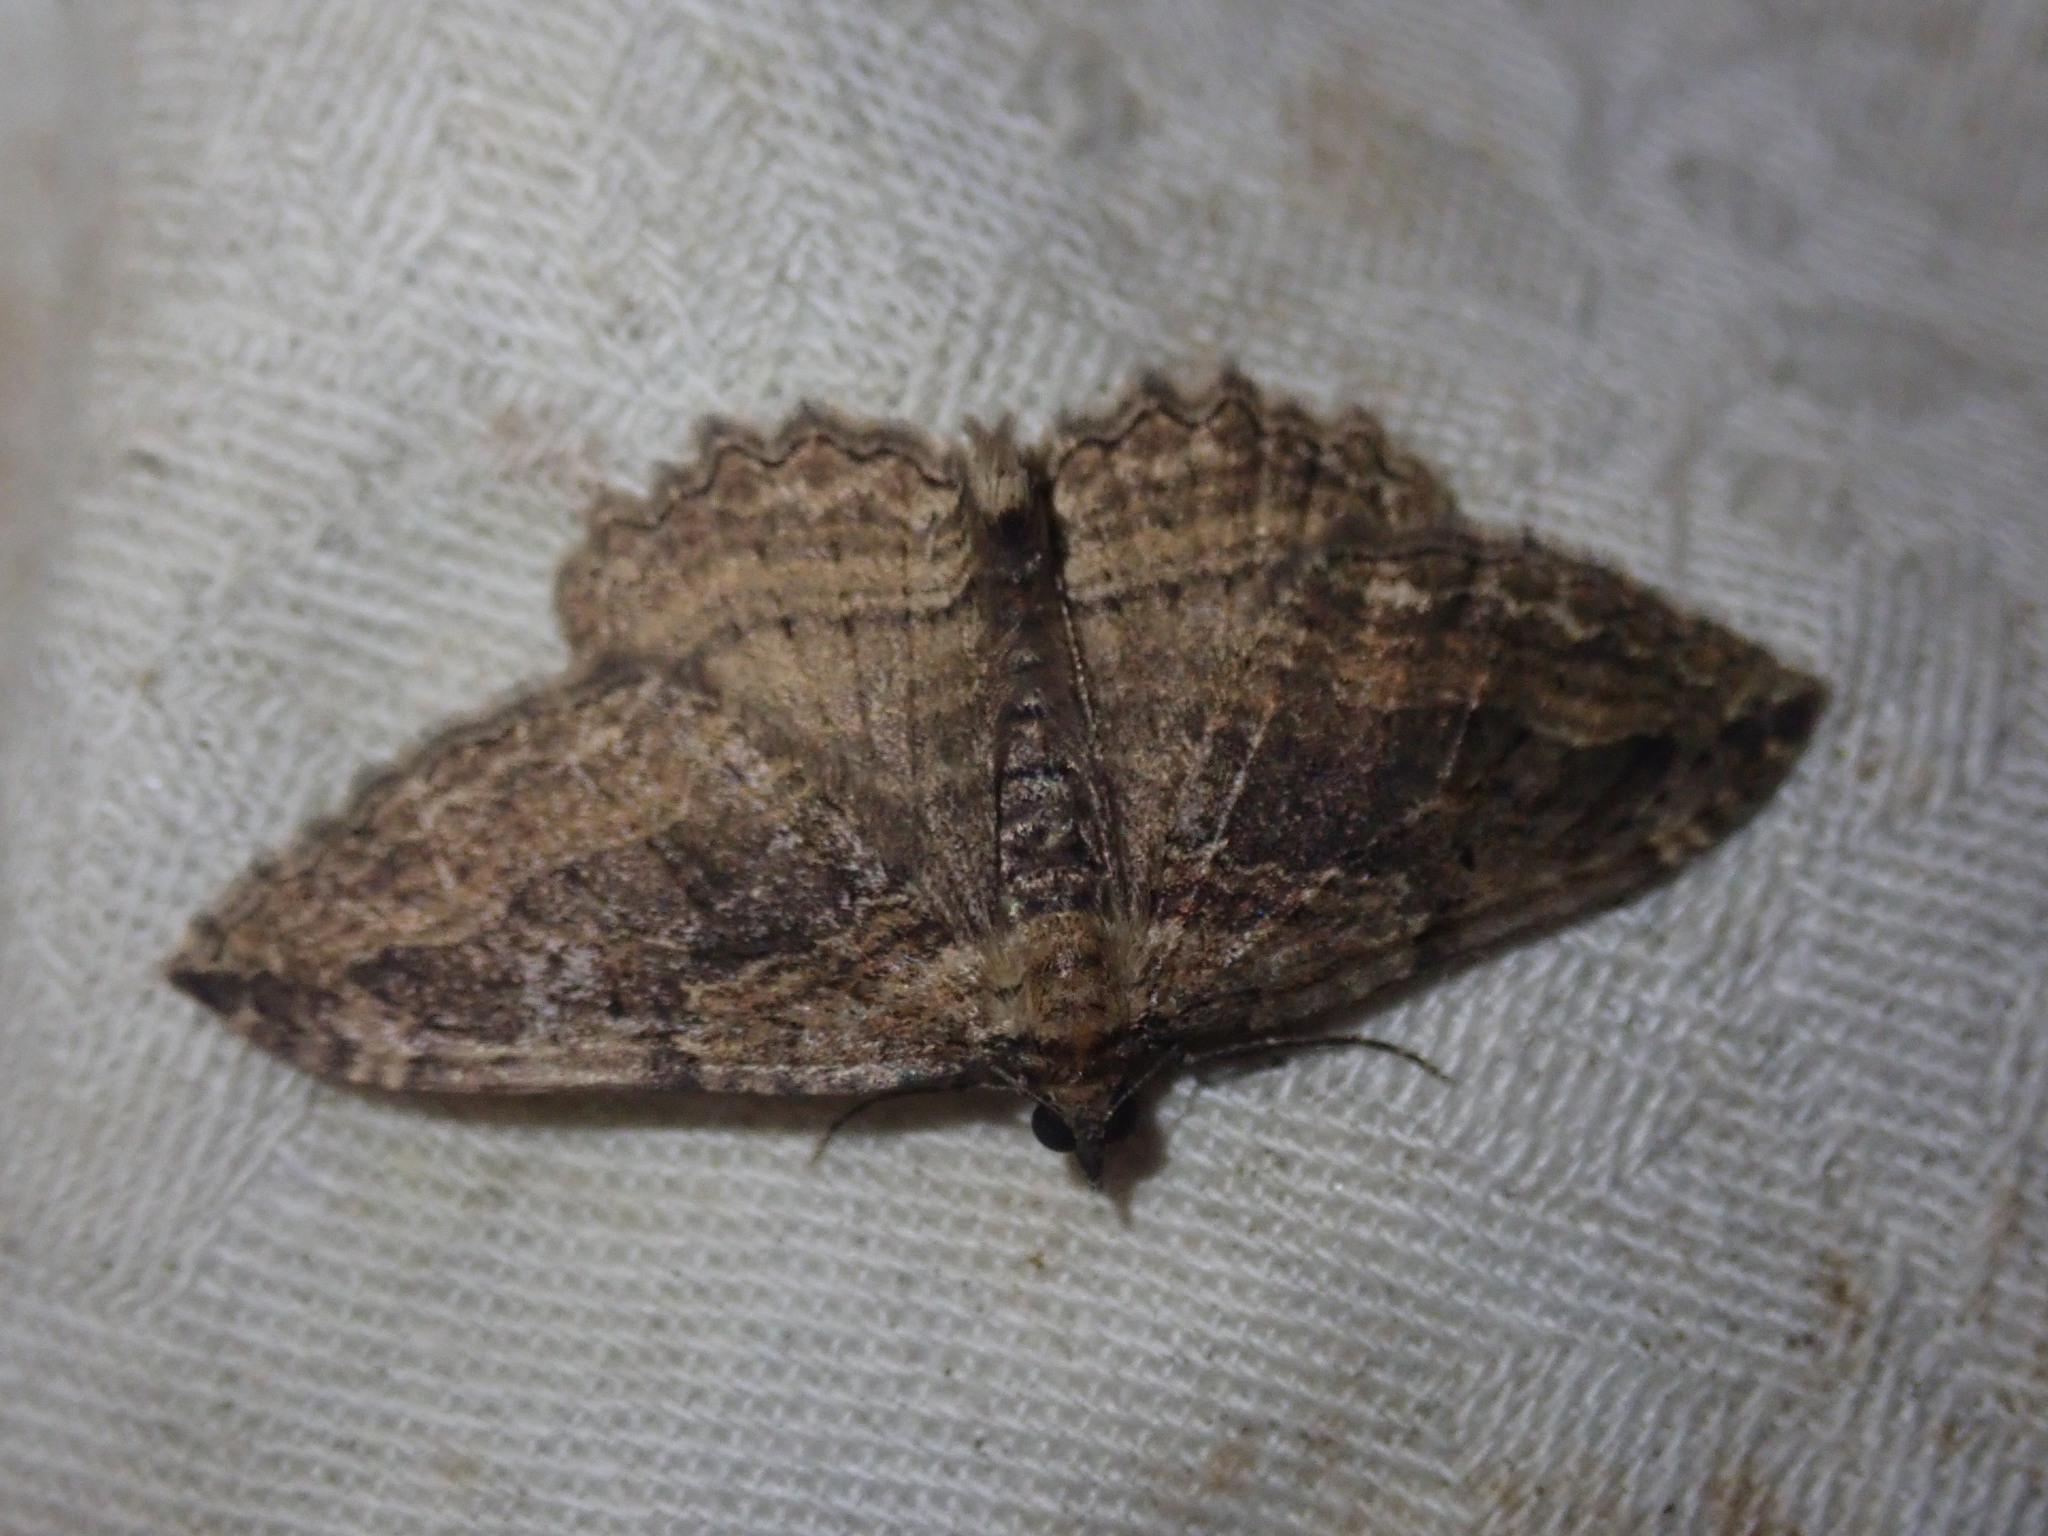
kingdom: Animalia
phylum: Arthropoda
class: Insecta
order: Lepidoptera
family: Geometridae
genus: Philereme
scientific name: Philereme transversata
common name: Dark umber
